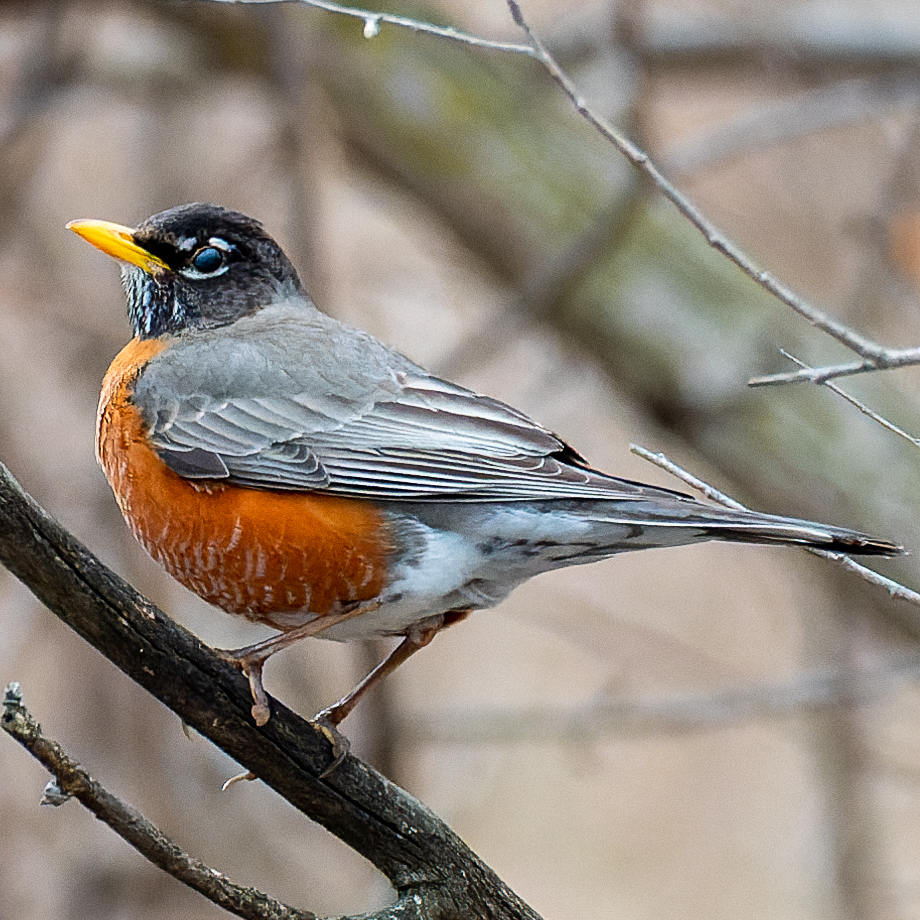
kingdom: Animalia
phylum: Chordata
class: Aves
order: Passeriformes
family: Turdidae
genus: Turdus
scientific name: Turdus migratorius
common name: American robin
